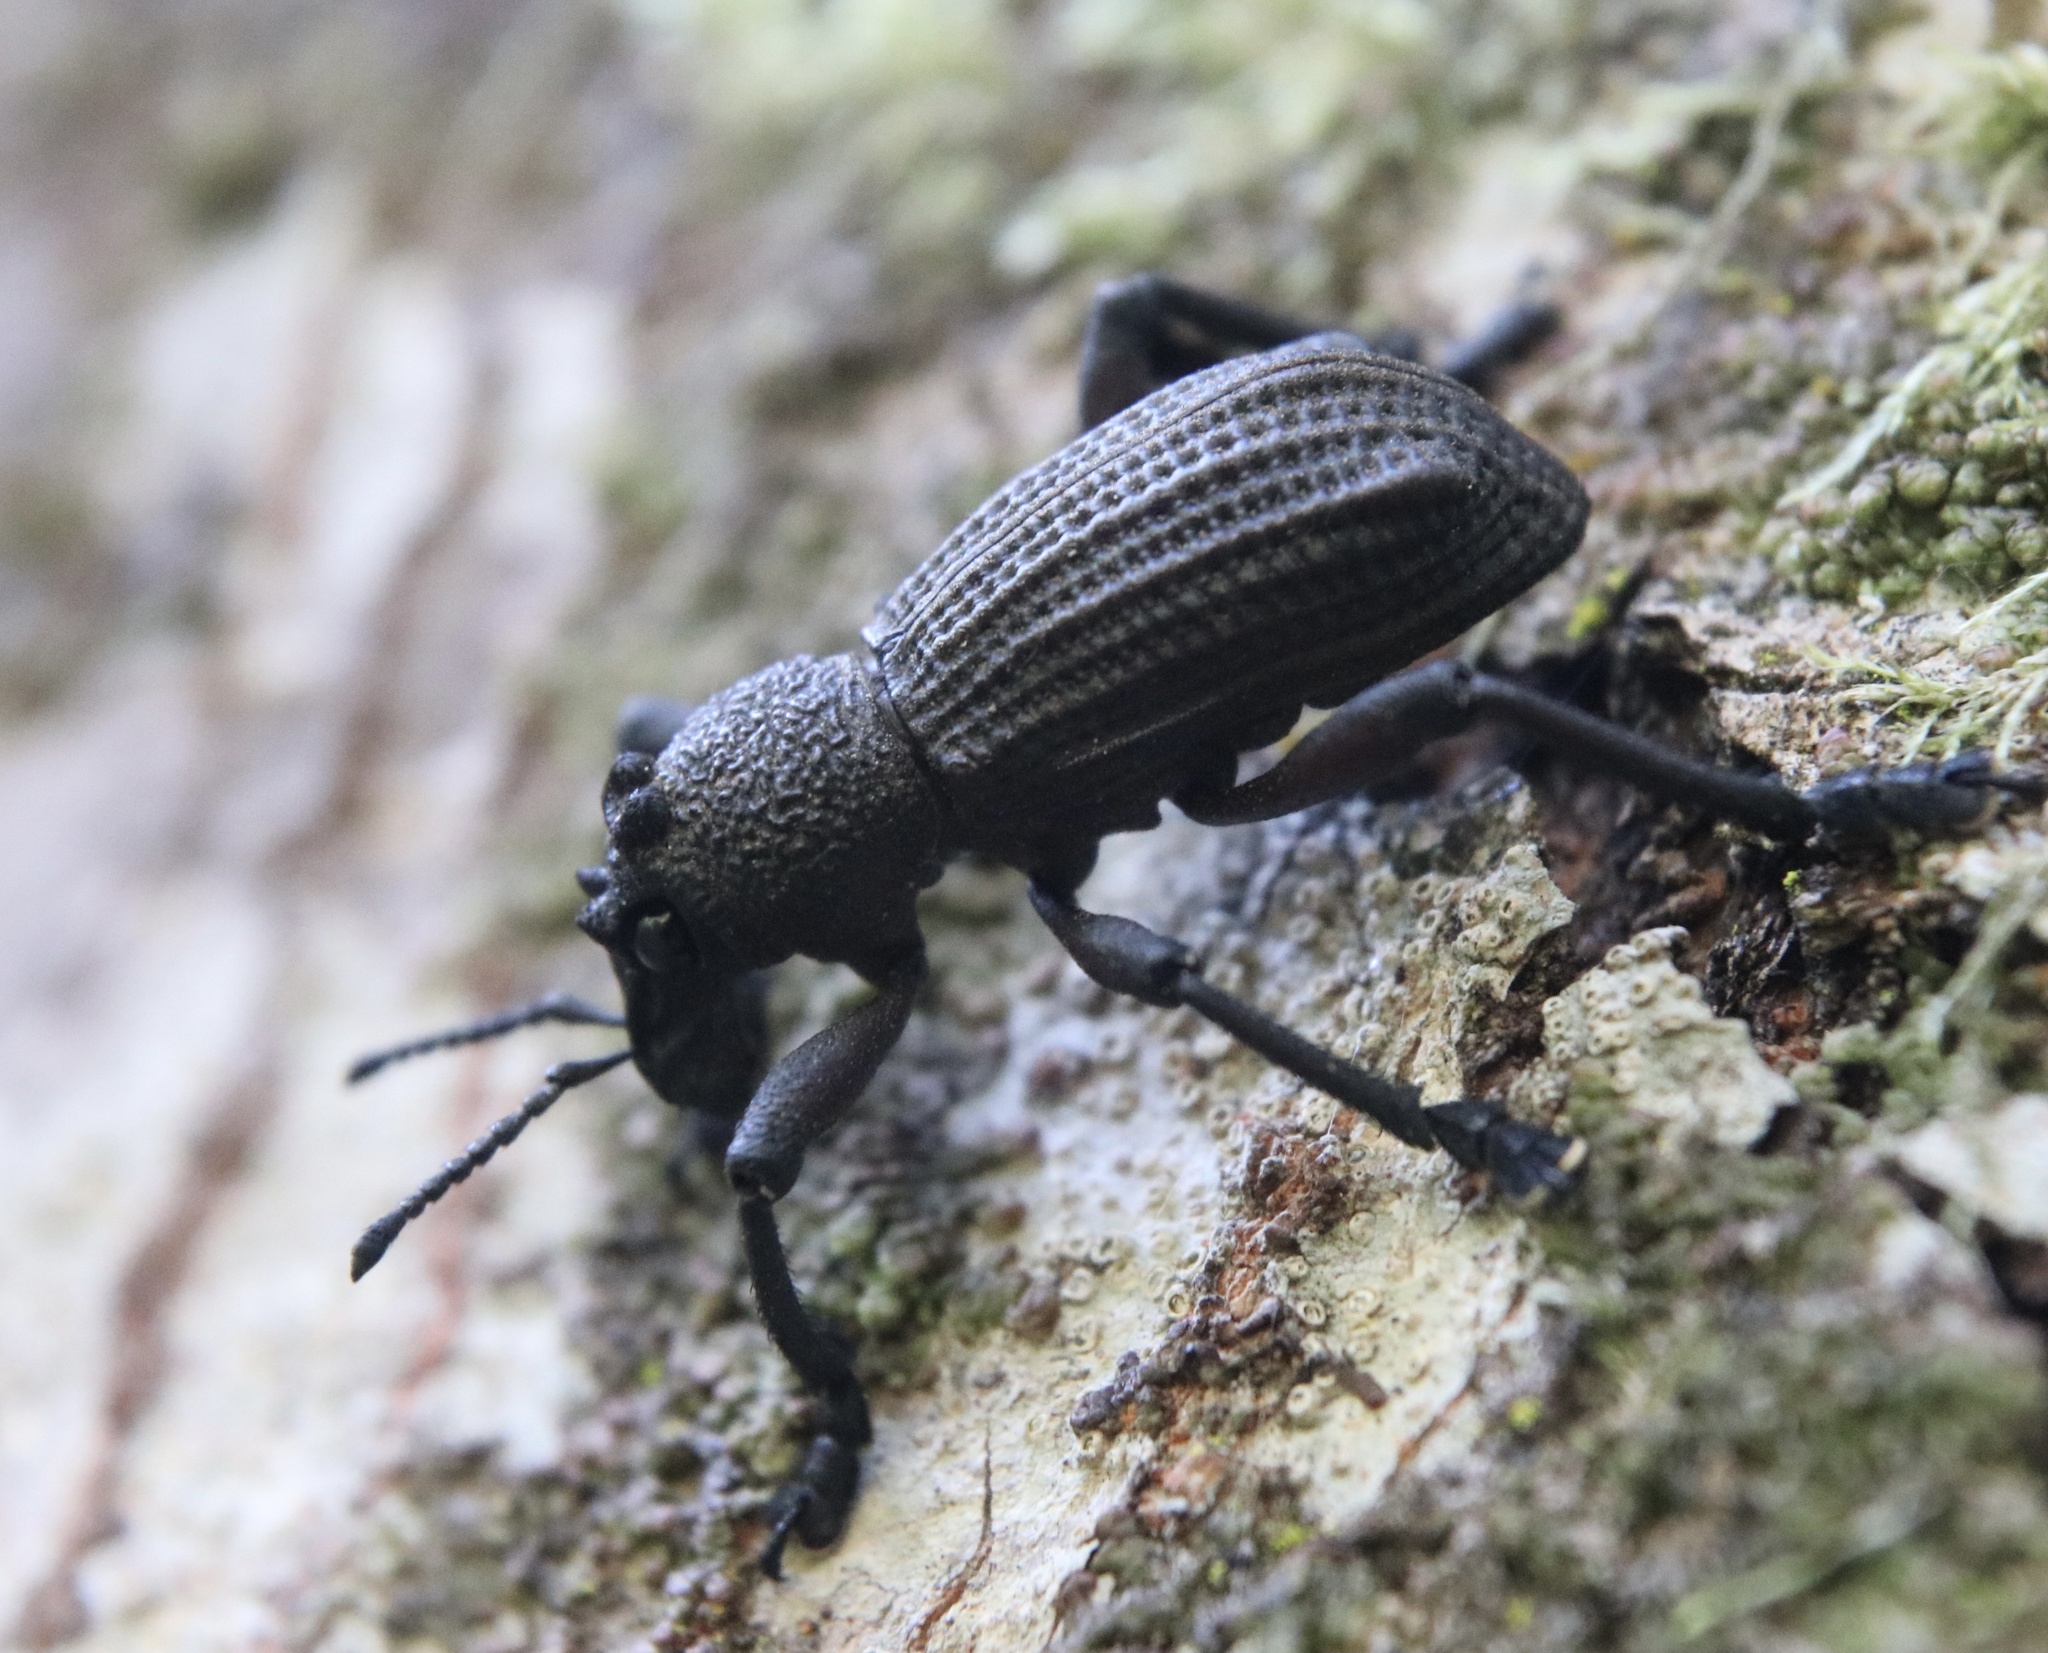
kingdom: Animalia
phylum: Arthropoda
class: Insecta
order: Coleoptera
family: Curculionidae
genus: Aegorhinus
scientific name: Aegorhinus
